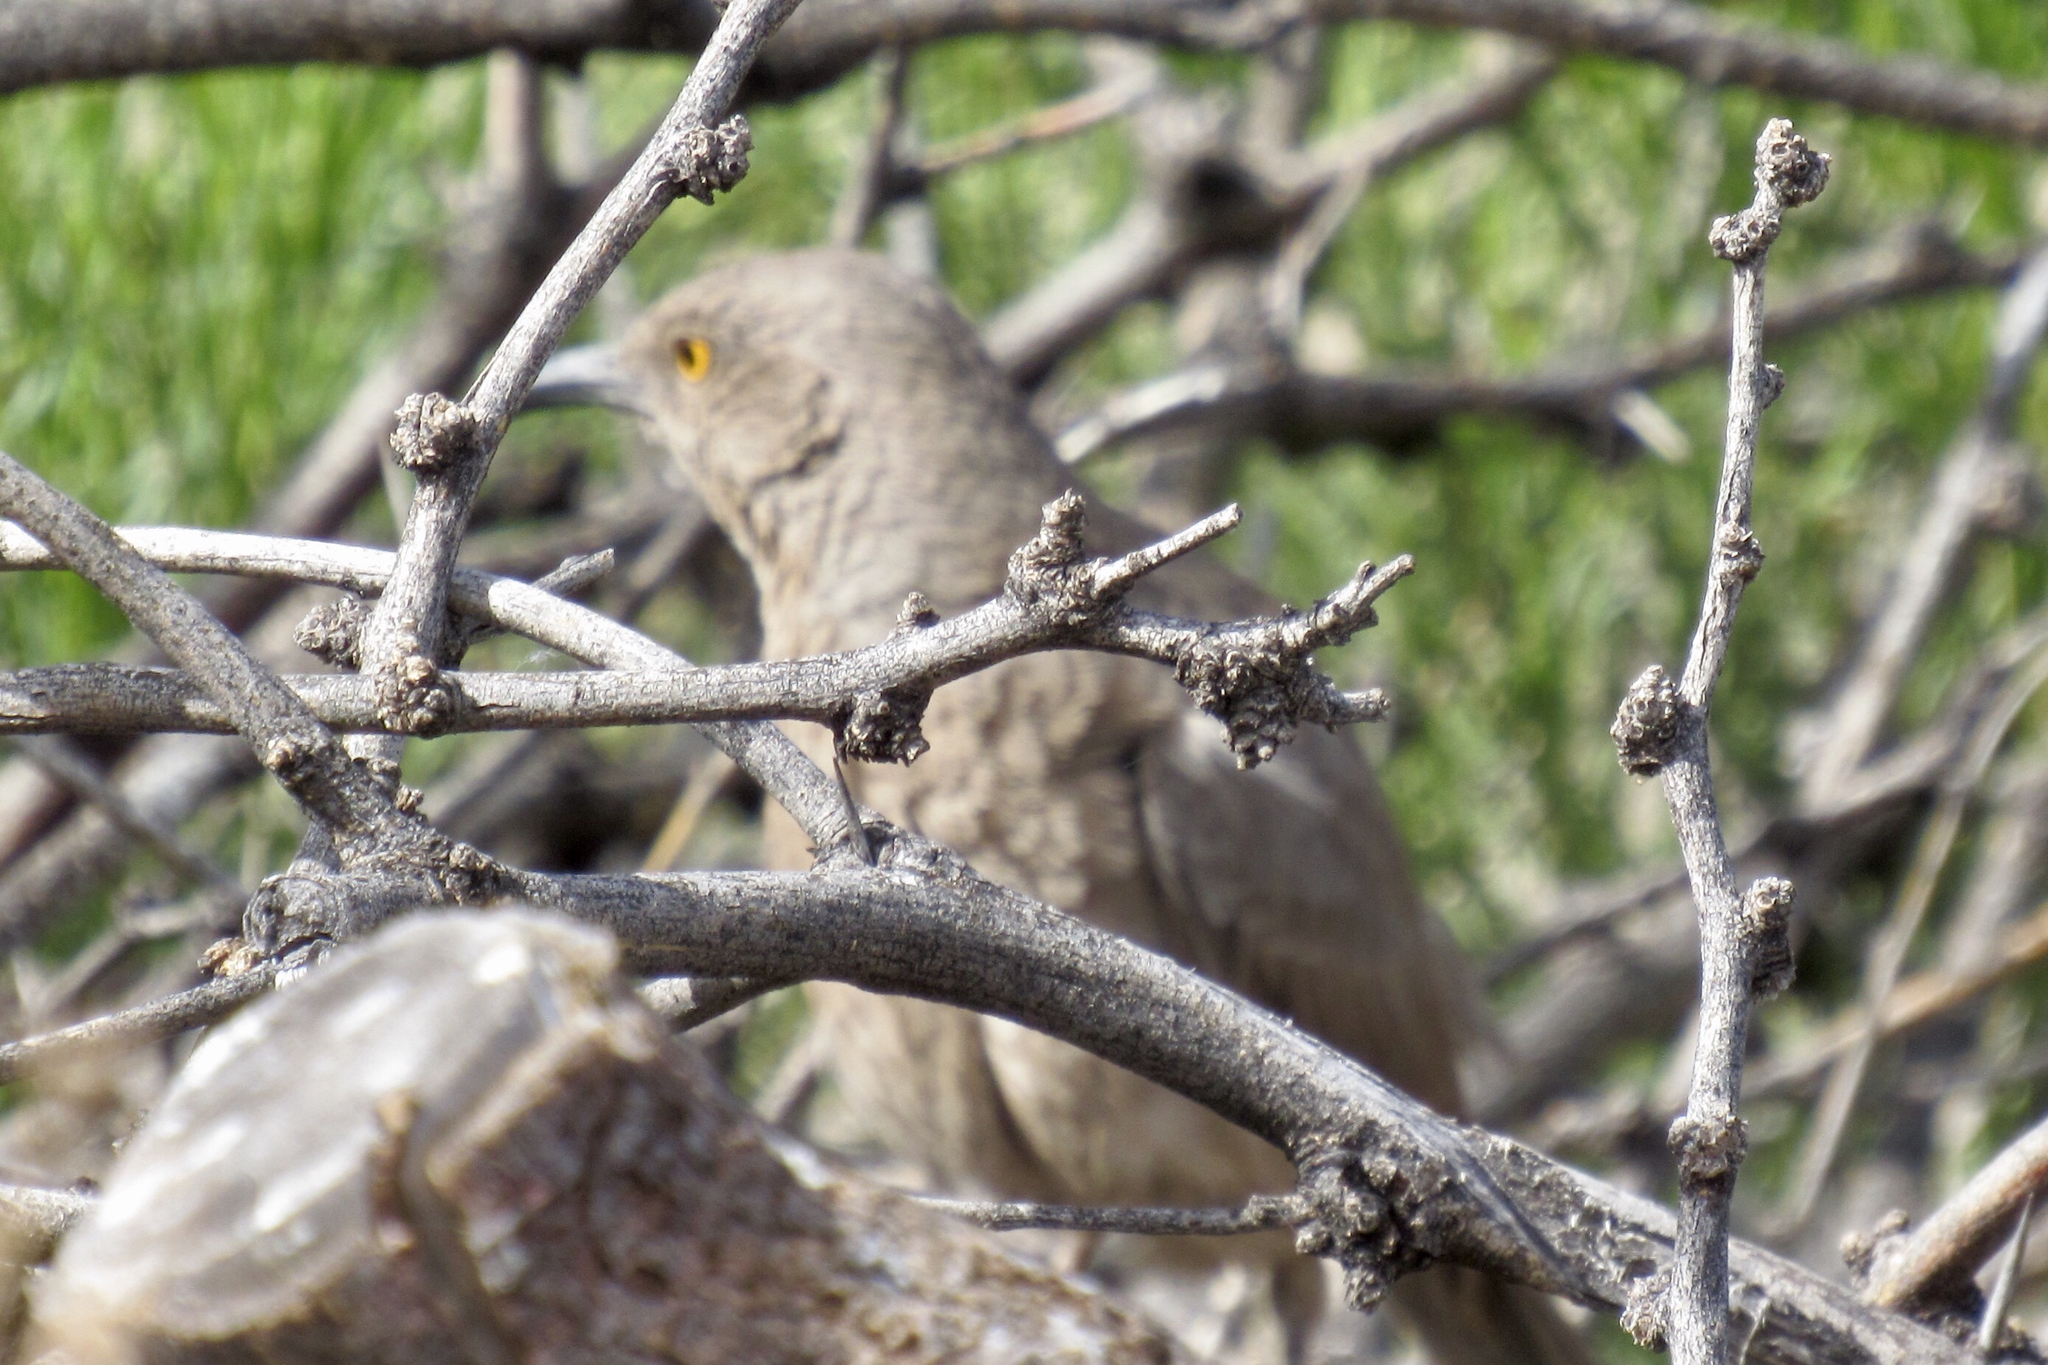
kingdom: Animalia
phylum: Chordata
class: Aves
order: Passeriformes
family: Mimidae
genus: Toxostoma
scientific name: Toxostoma curvirostre
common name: Curve-billed thrasher
